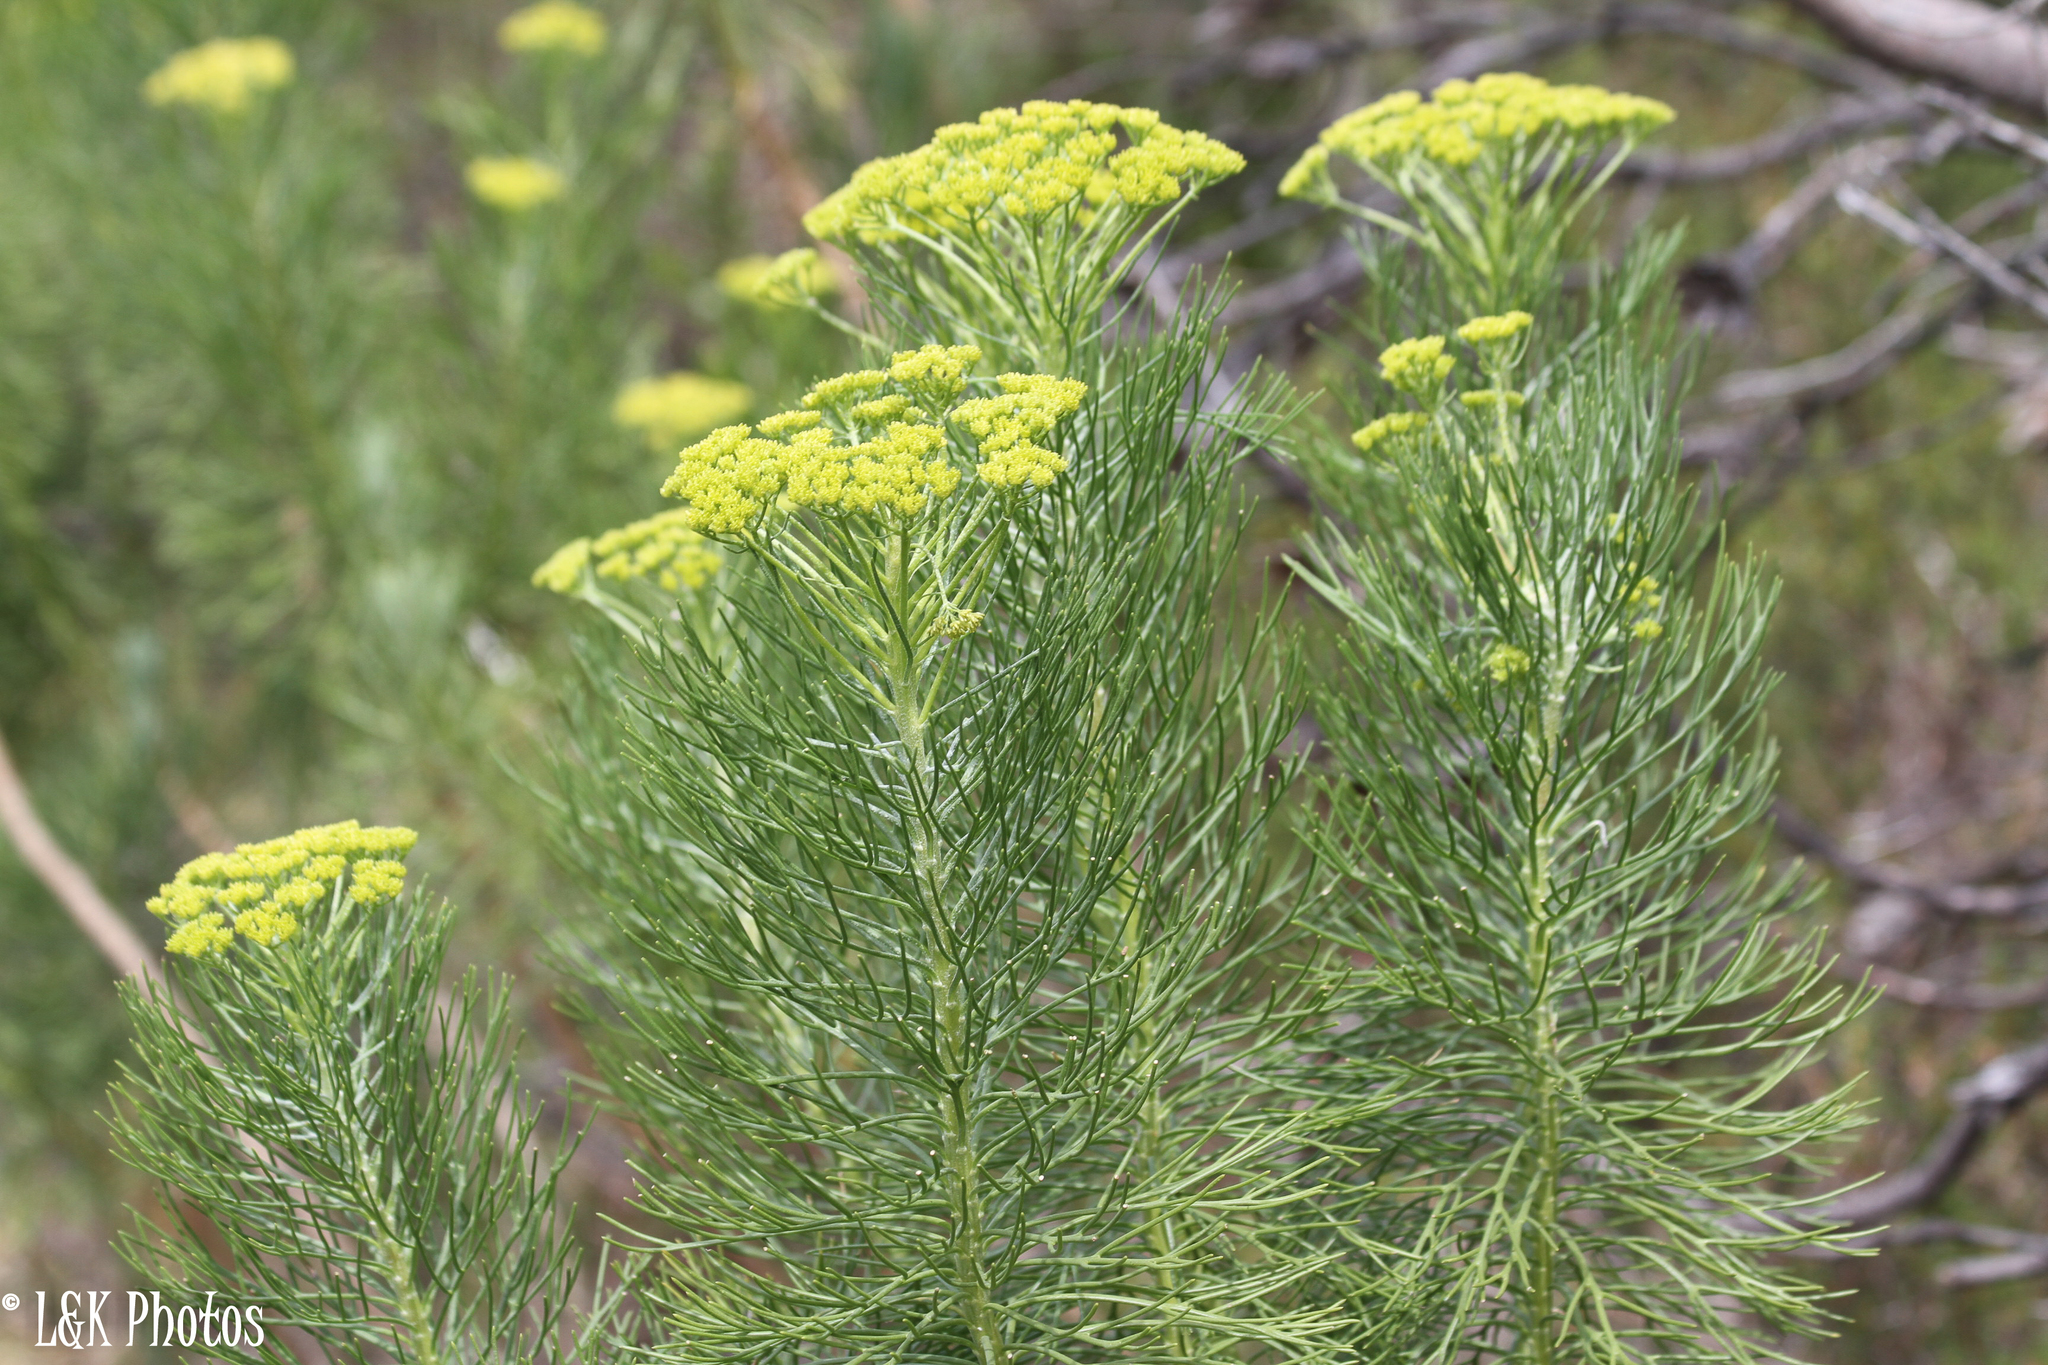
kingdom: Plantae
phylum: Tracheophyta
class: Magnoliopsida
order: Asterales
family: Asteraceae
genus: Hymenolepis
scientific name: Hymenolepis crithmifolia
